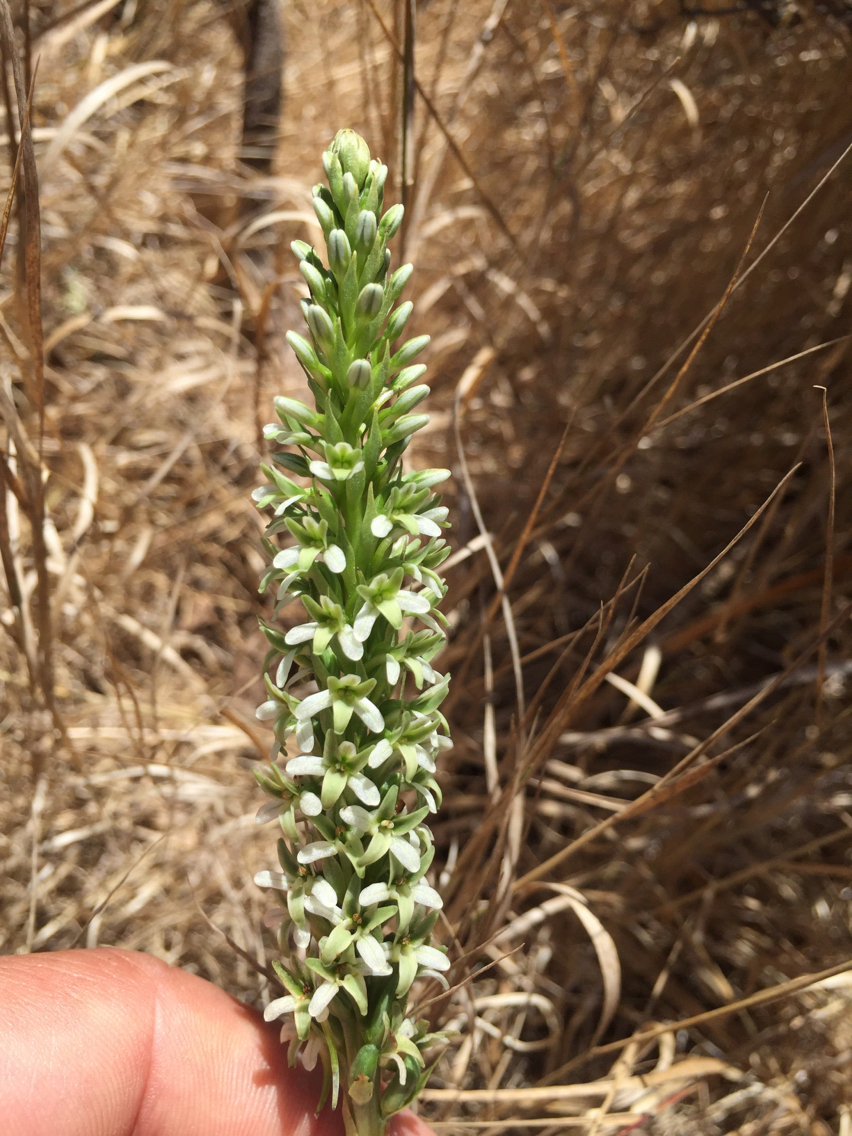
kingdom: Plantae
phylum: Tracheophyta
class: Liliopsida
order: Asparagales
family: Orchidaceae
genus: Platanthera
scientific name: Platanthera elegans
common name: Coast piperia
